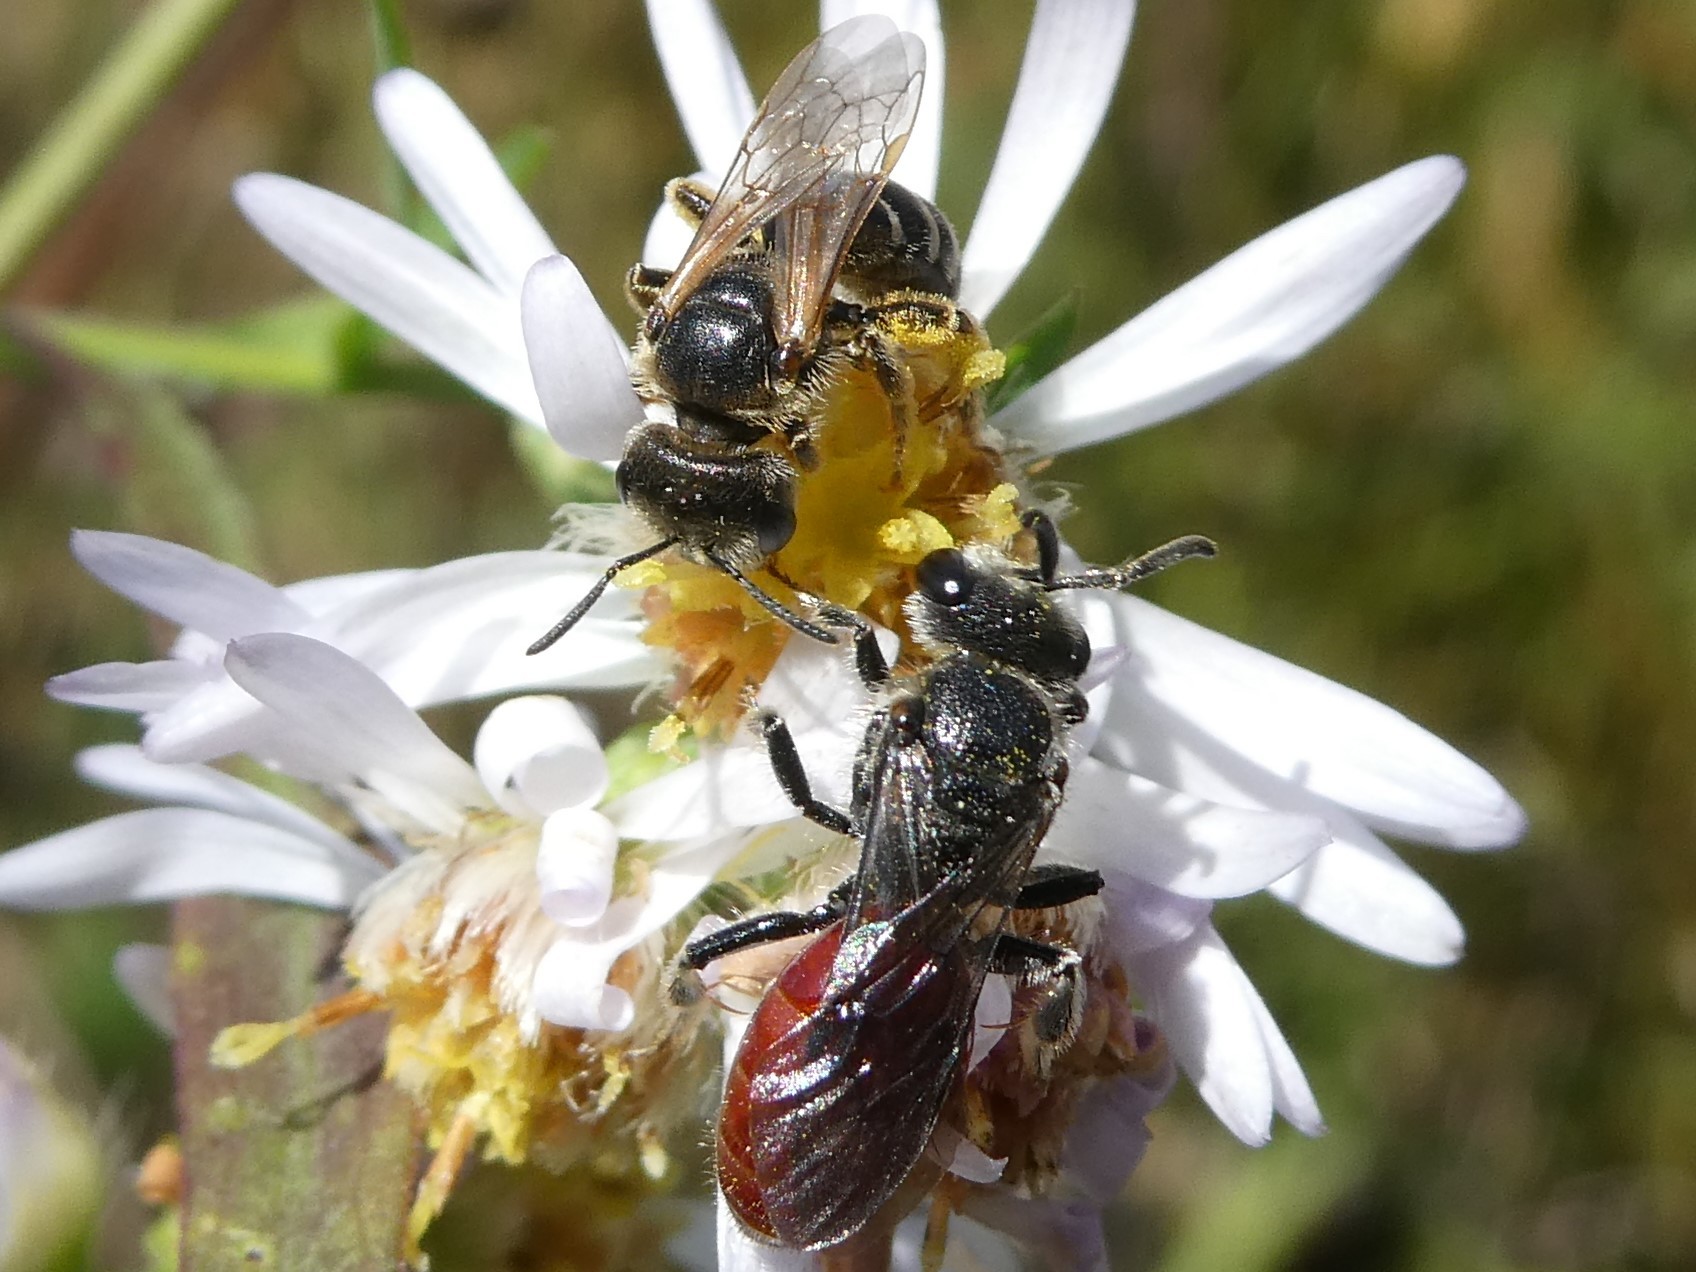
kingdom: Animalia
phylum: Arthropoda
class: Insecta
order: Hymenoptera
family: Halictidae
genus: Halictus
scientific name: Halictus ligatus
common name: Ligated furrow bee
